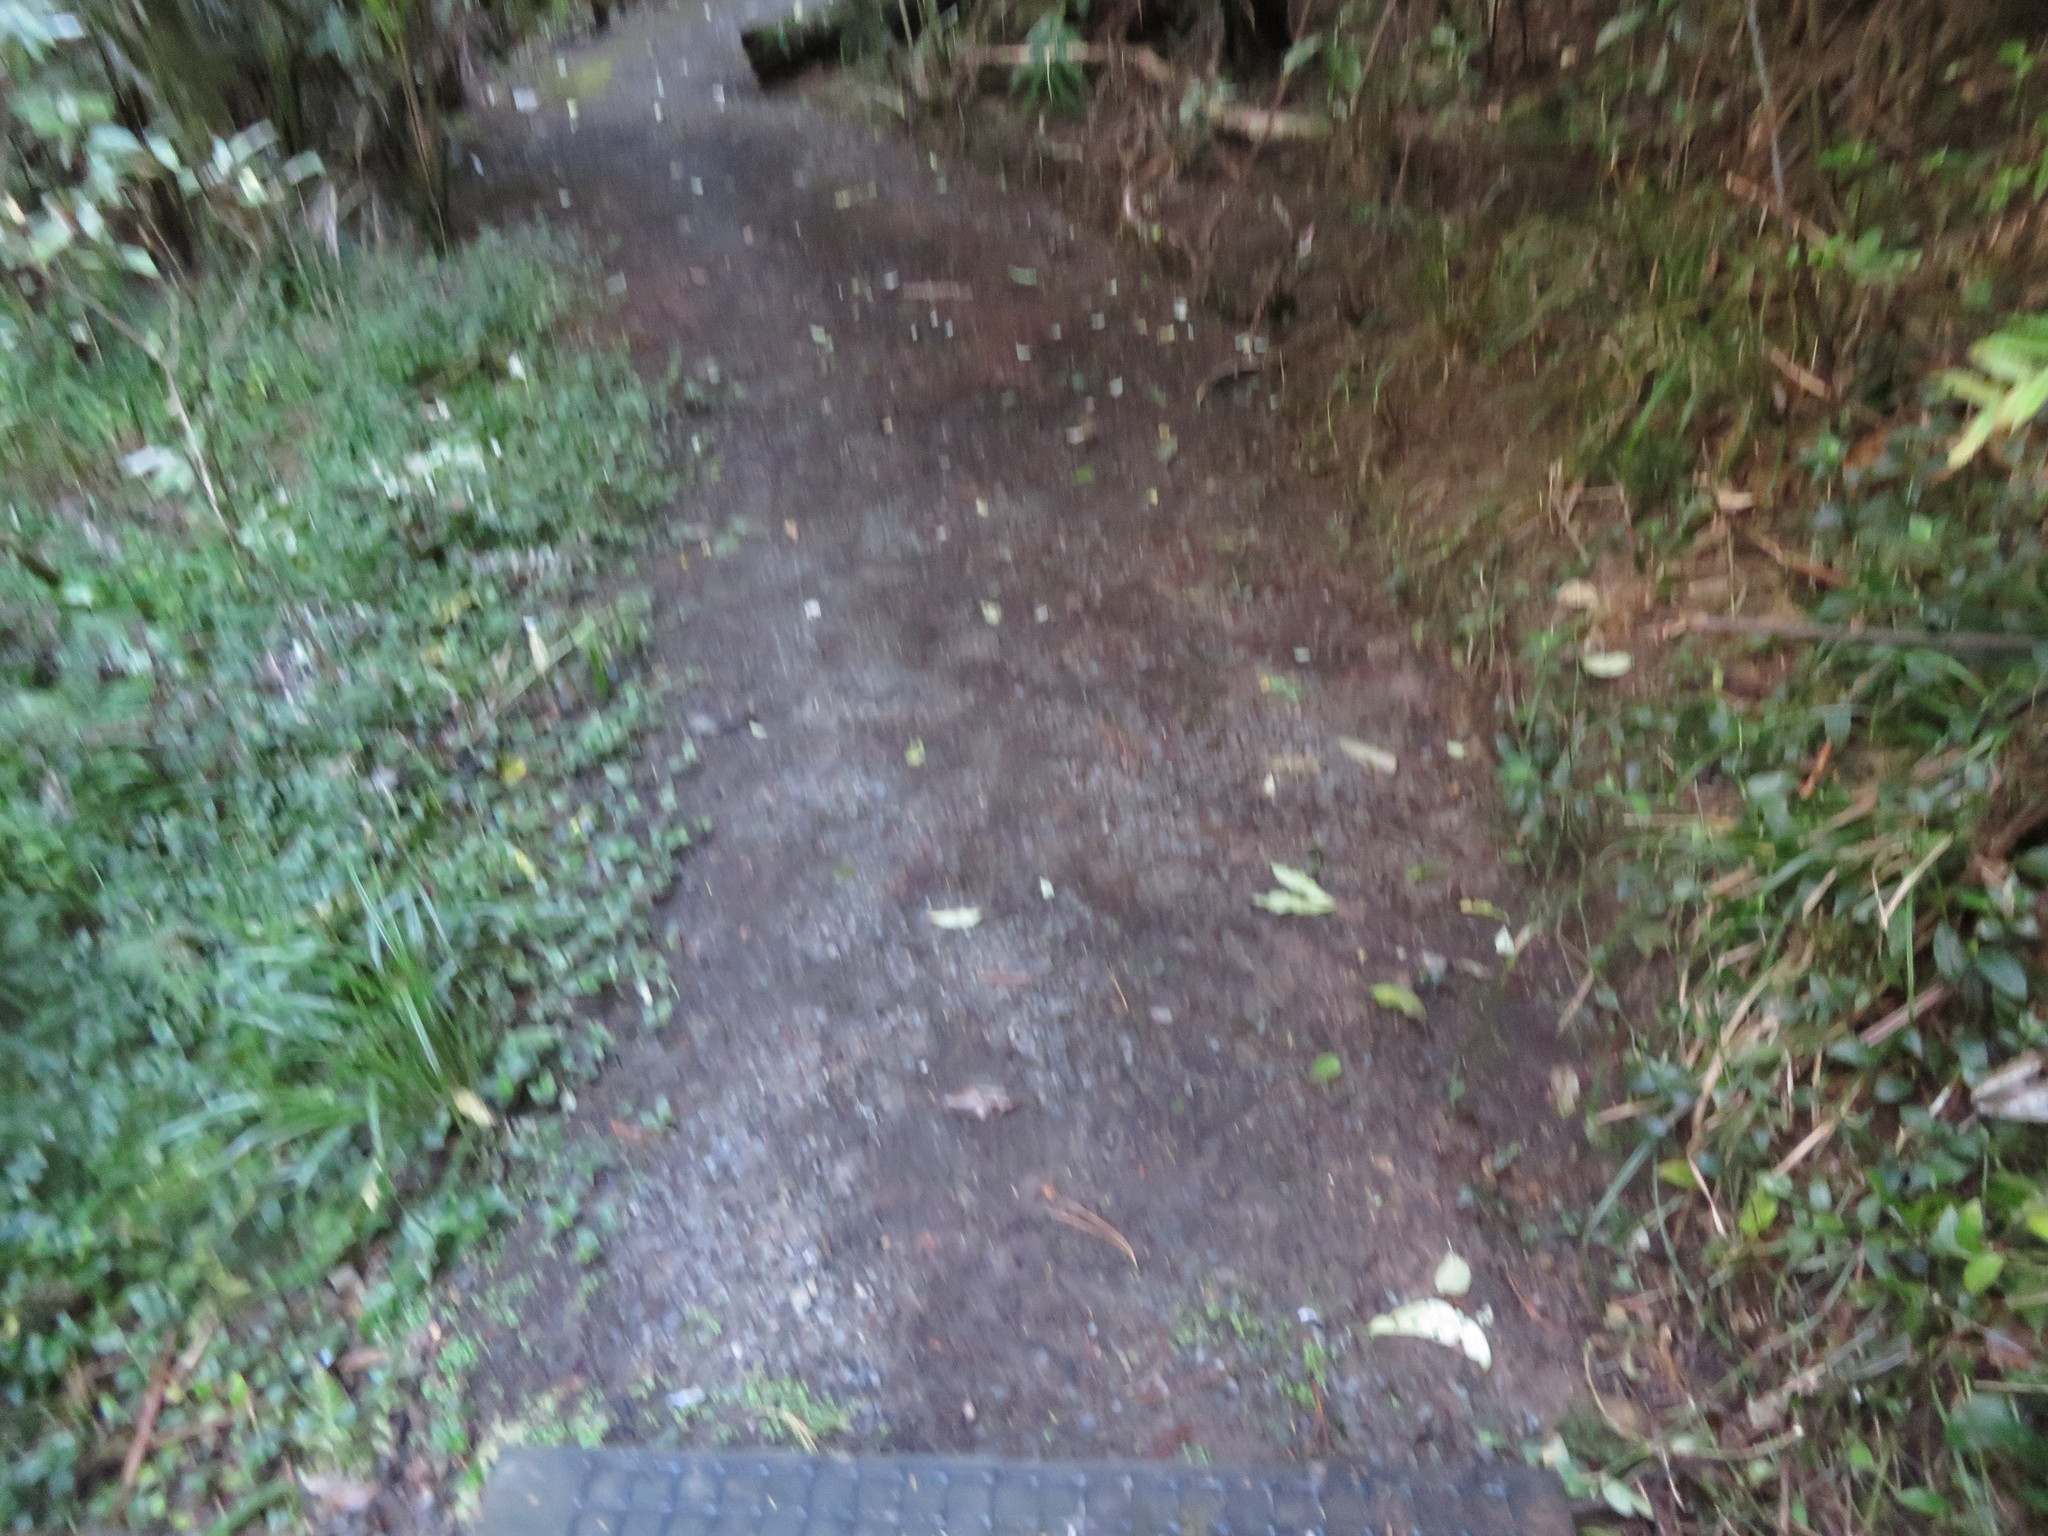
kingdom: Plantae
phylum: Tracheophyta
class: Liliopsida
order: Commelinales
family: Commelinaceae
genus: Tradescantia
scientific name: Tradescantia fluminensis
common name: Wandering-jew
